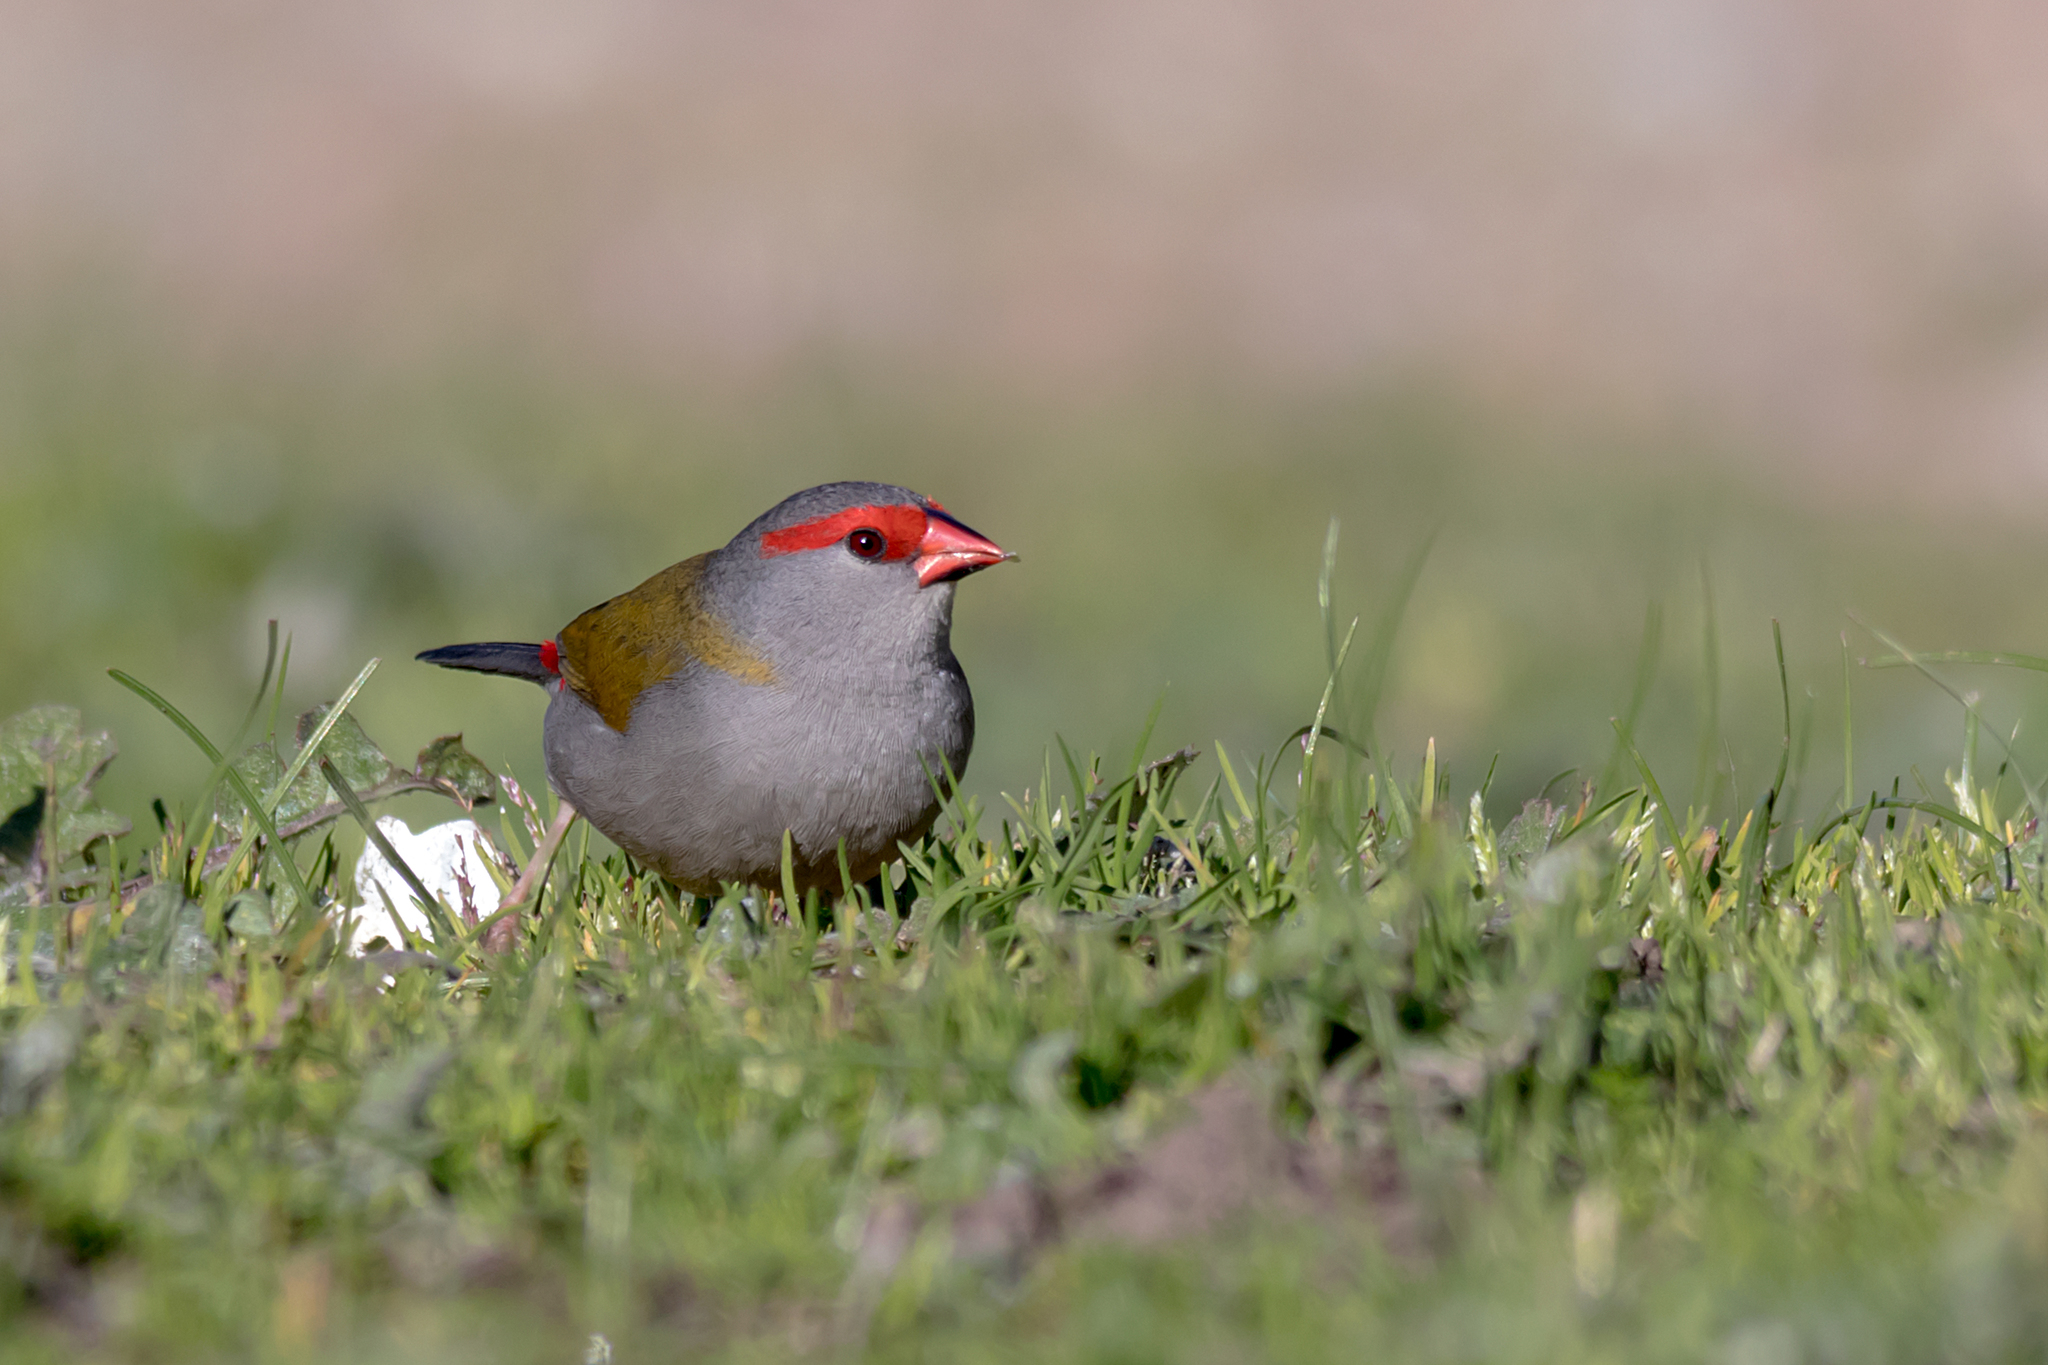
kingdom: Animalia
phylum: Chordata
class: Aves
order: Passeriformes
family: Estrildidae
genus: Neochmia
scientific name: Neochmia temporalis
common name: Red-browed finch
